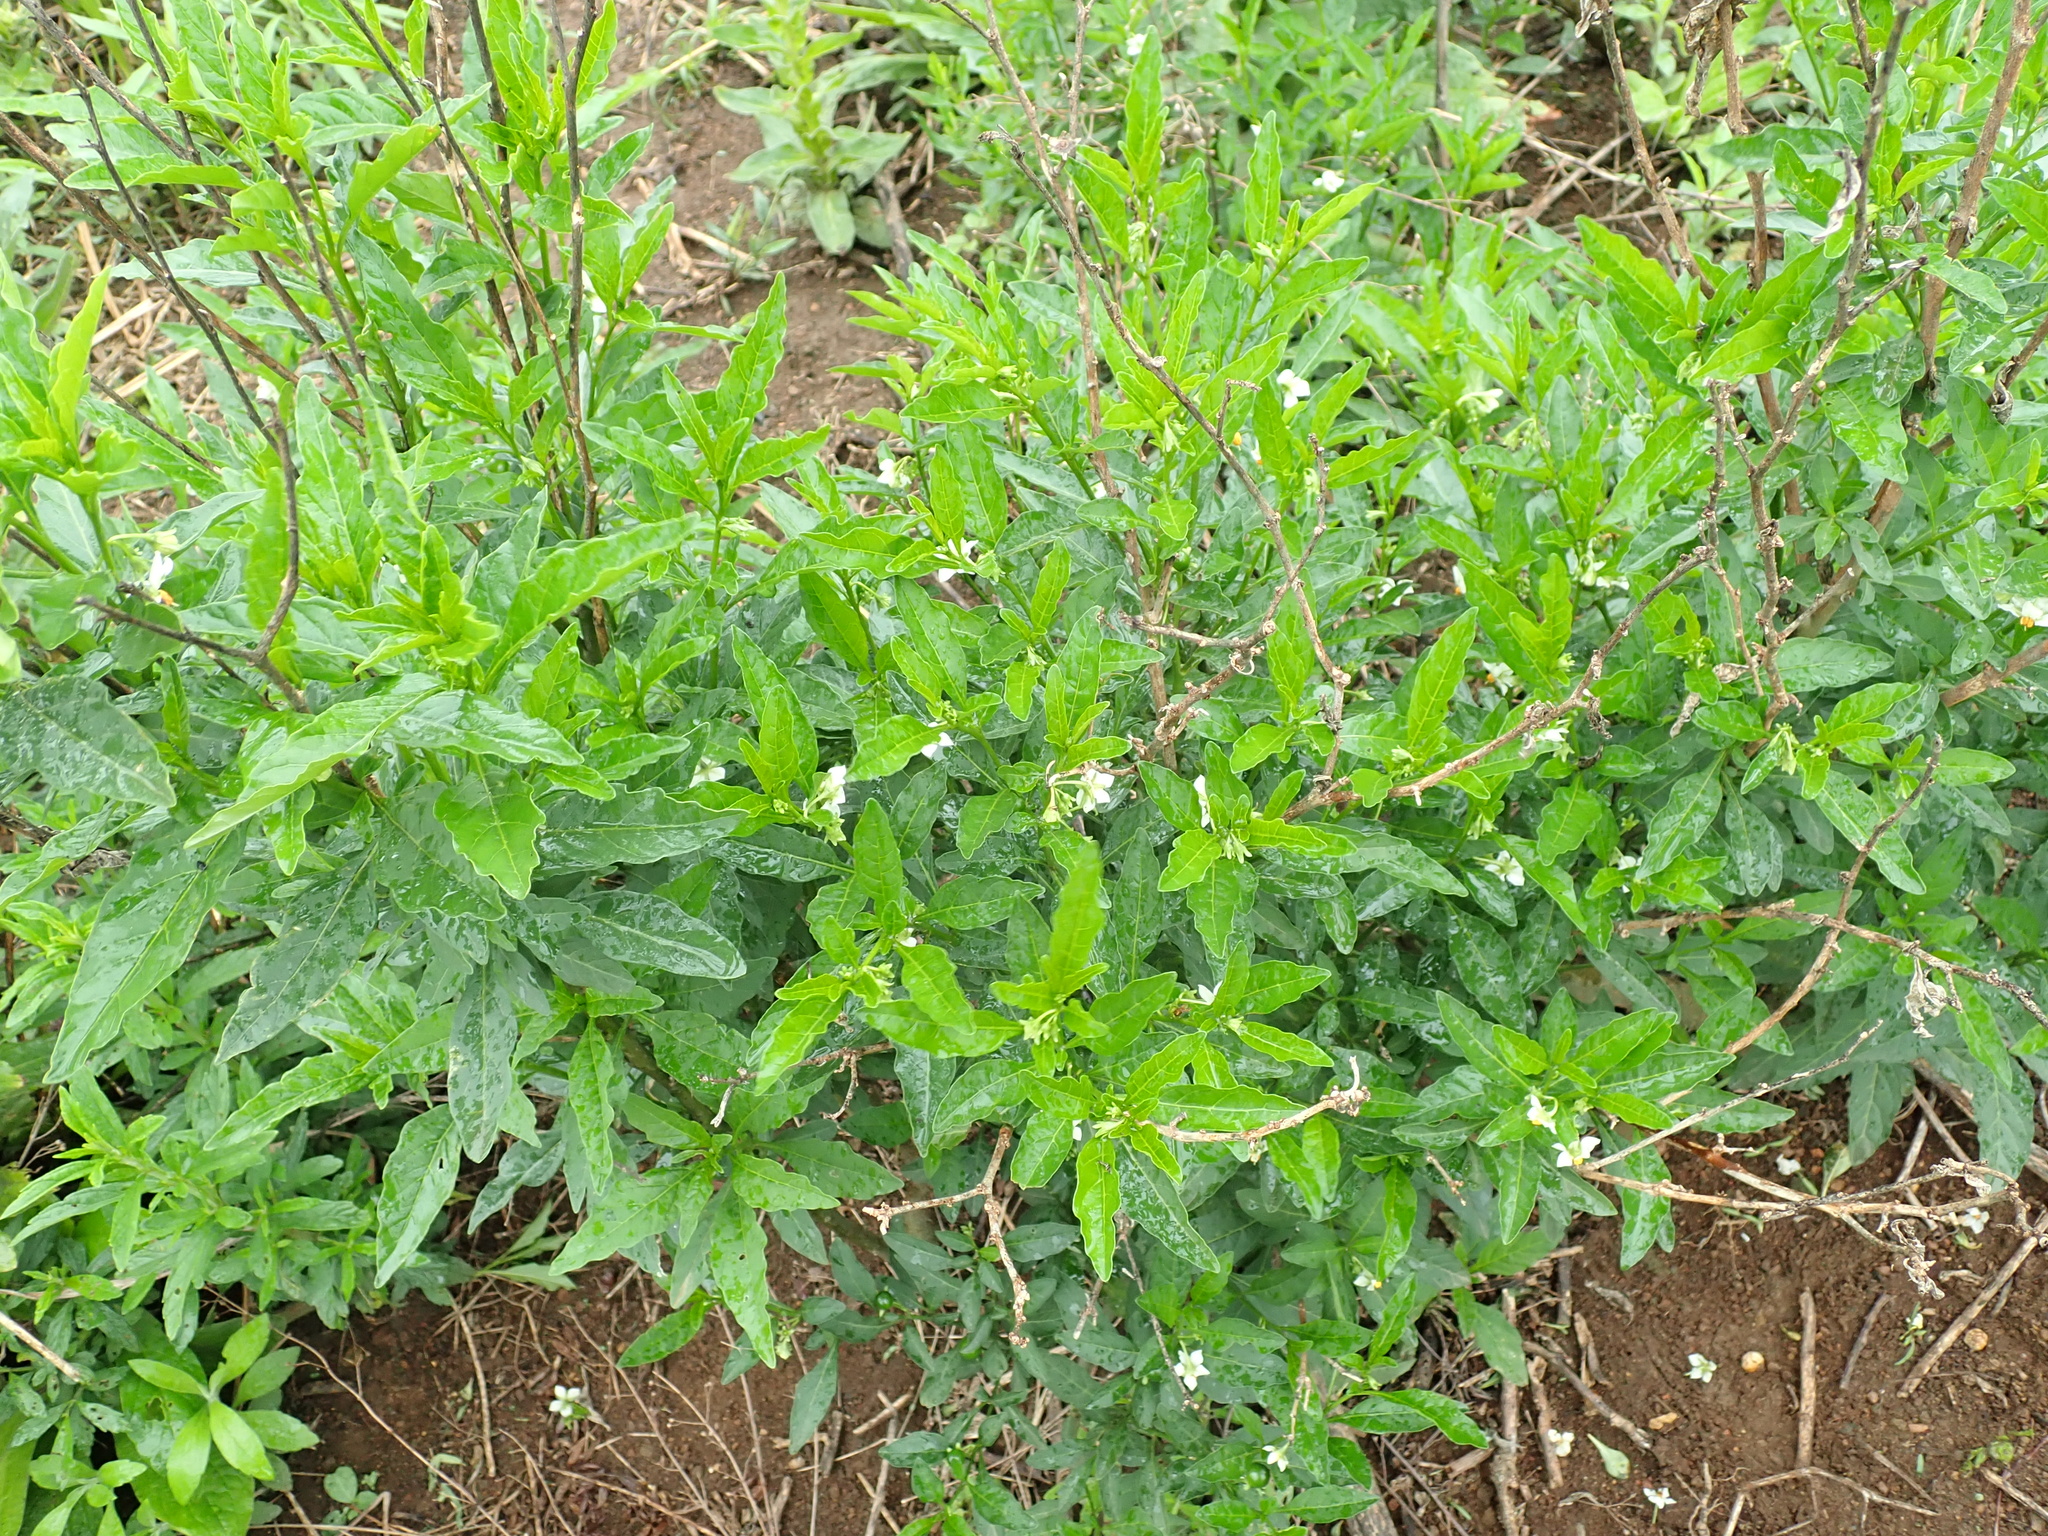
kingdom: Plantae
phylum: Tracheophyta
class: Magnoliopsida
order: Solanales
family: Solanaceae
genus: Solanum
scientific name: Solanum pseudocapsicum
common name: Jerusalem cherry
